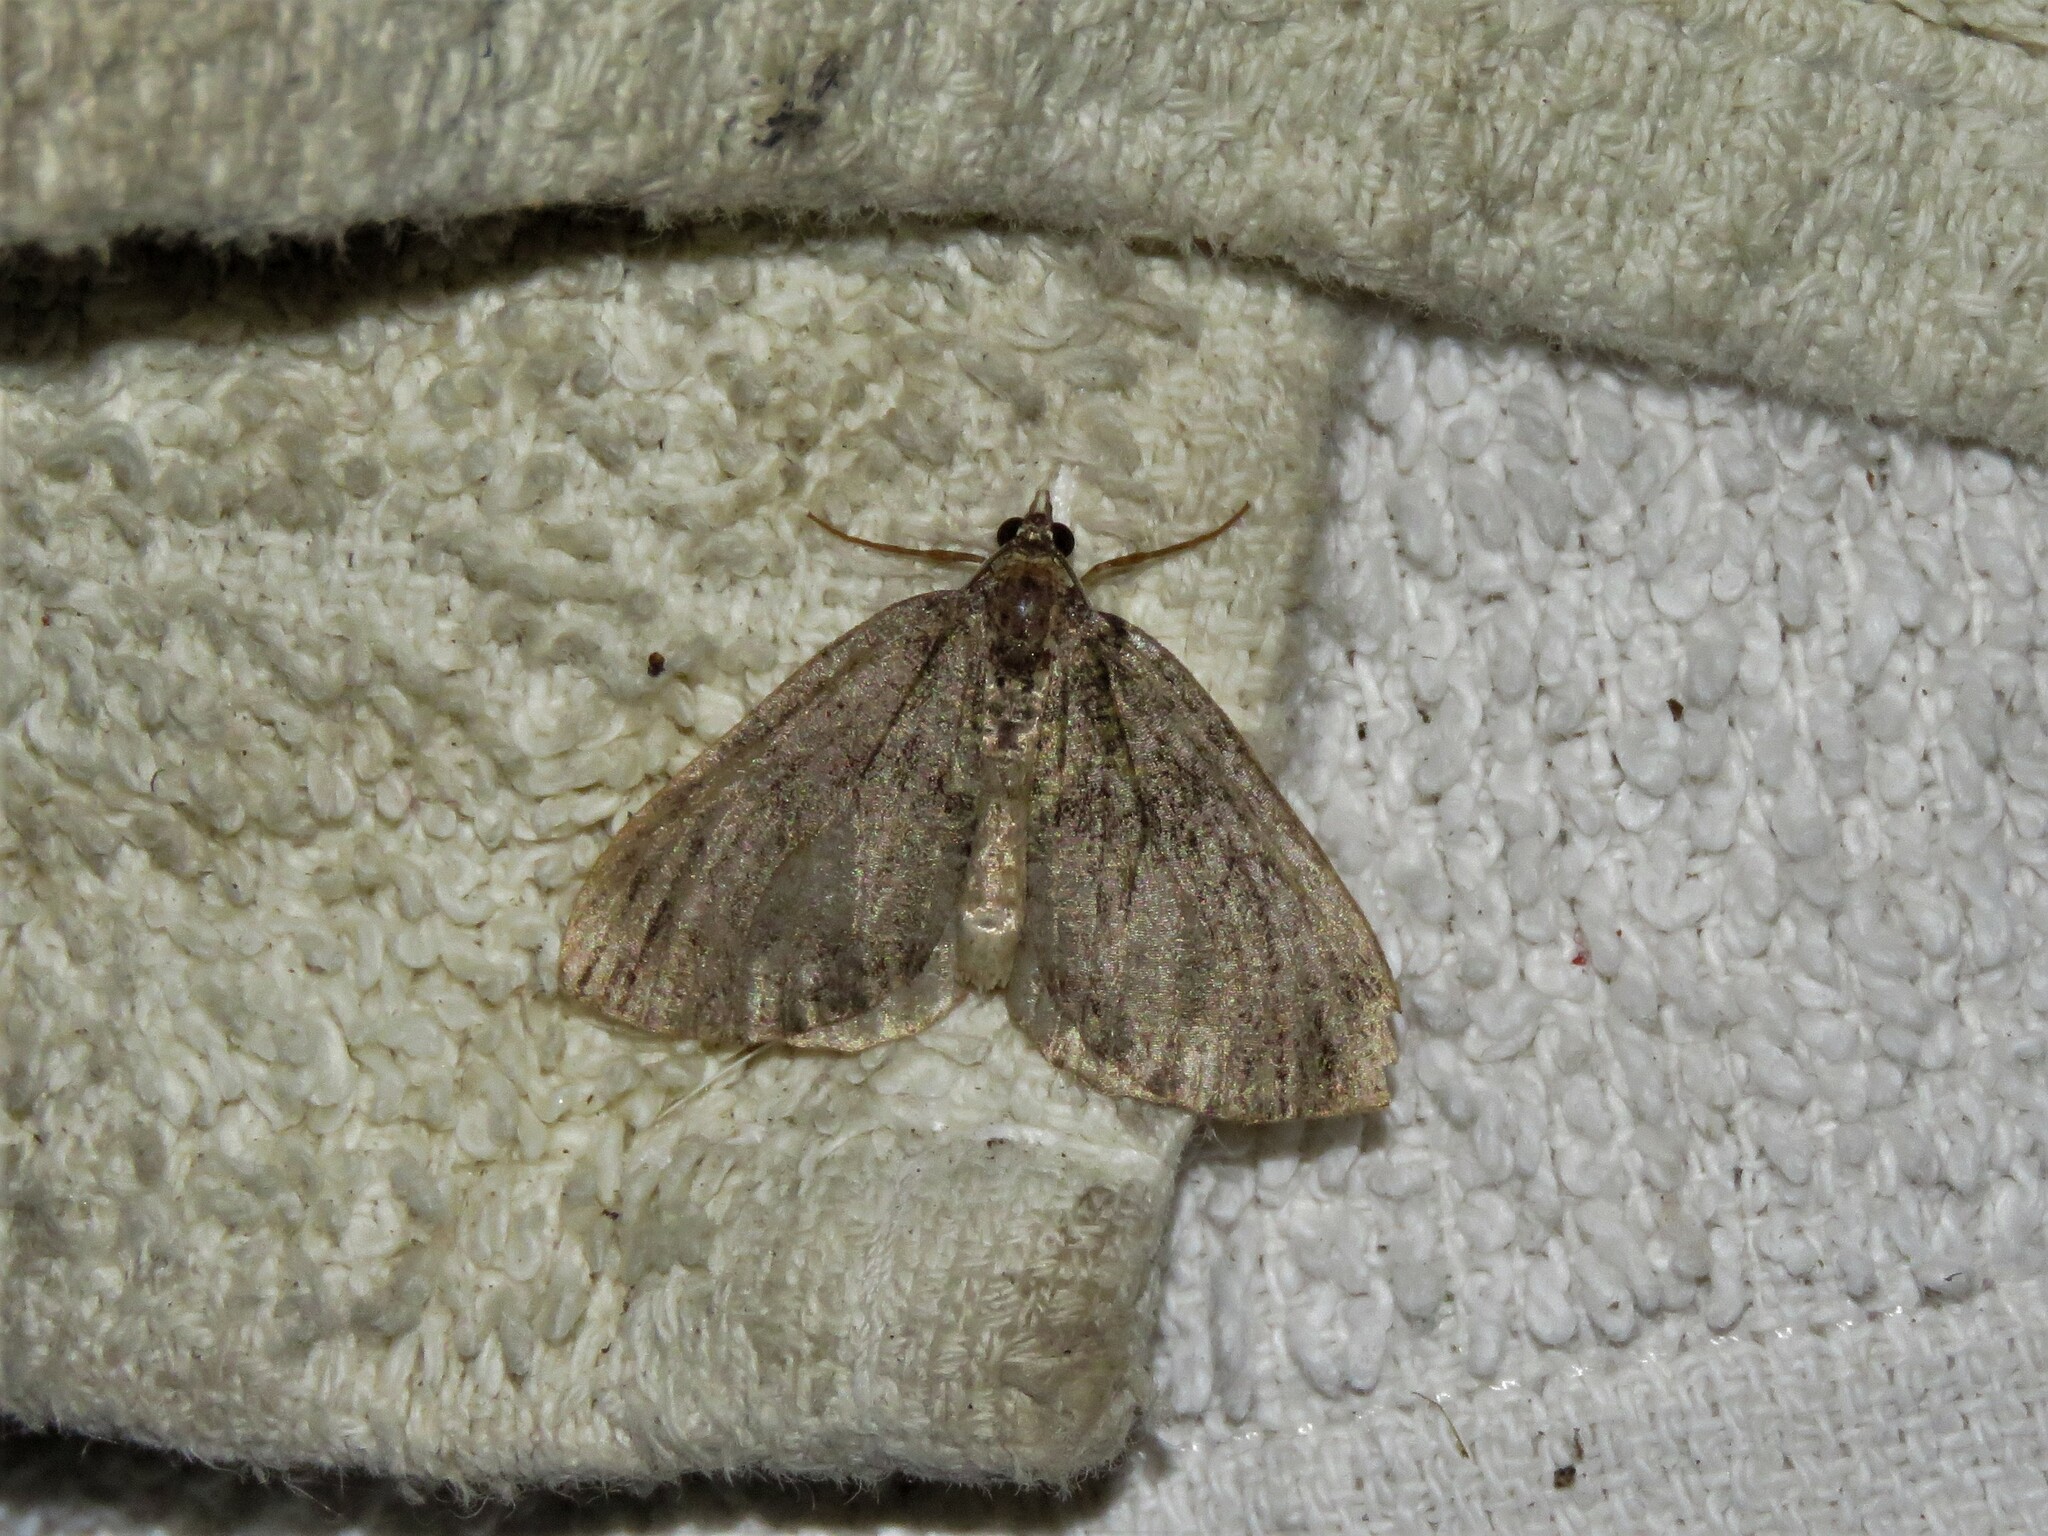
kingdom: Animalia
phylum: Arthropoda
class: Insecta
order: Lepidoptera
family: Geometridae
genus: Hydriomena
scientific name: Hydriomena furcata
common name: July highflyer
